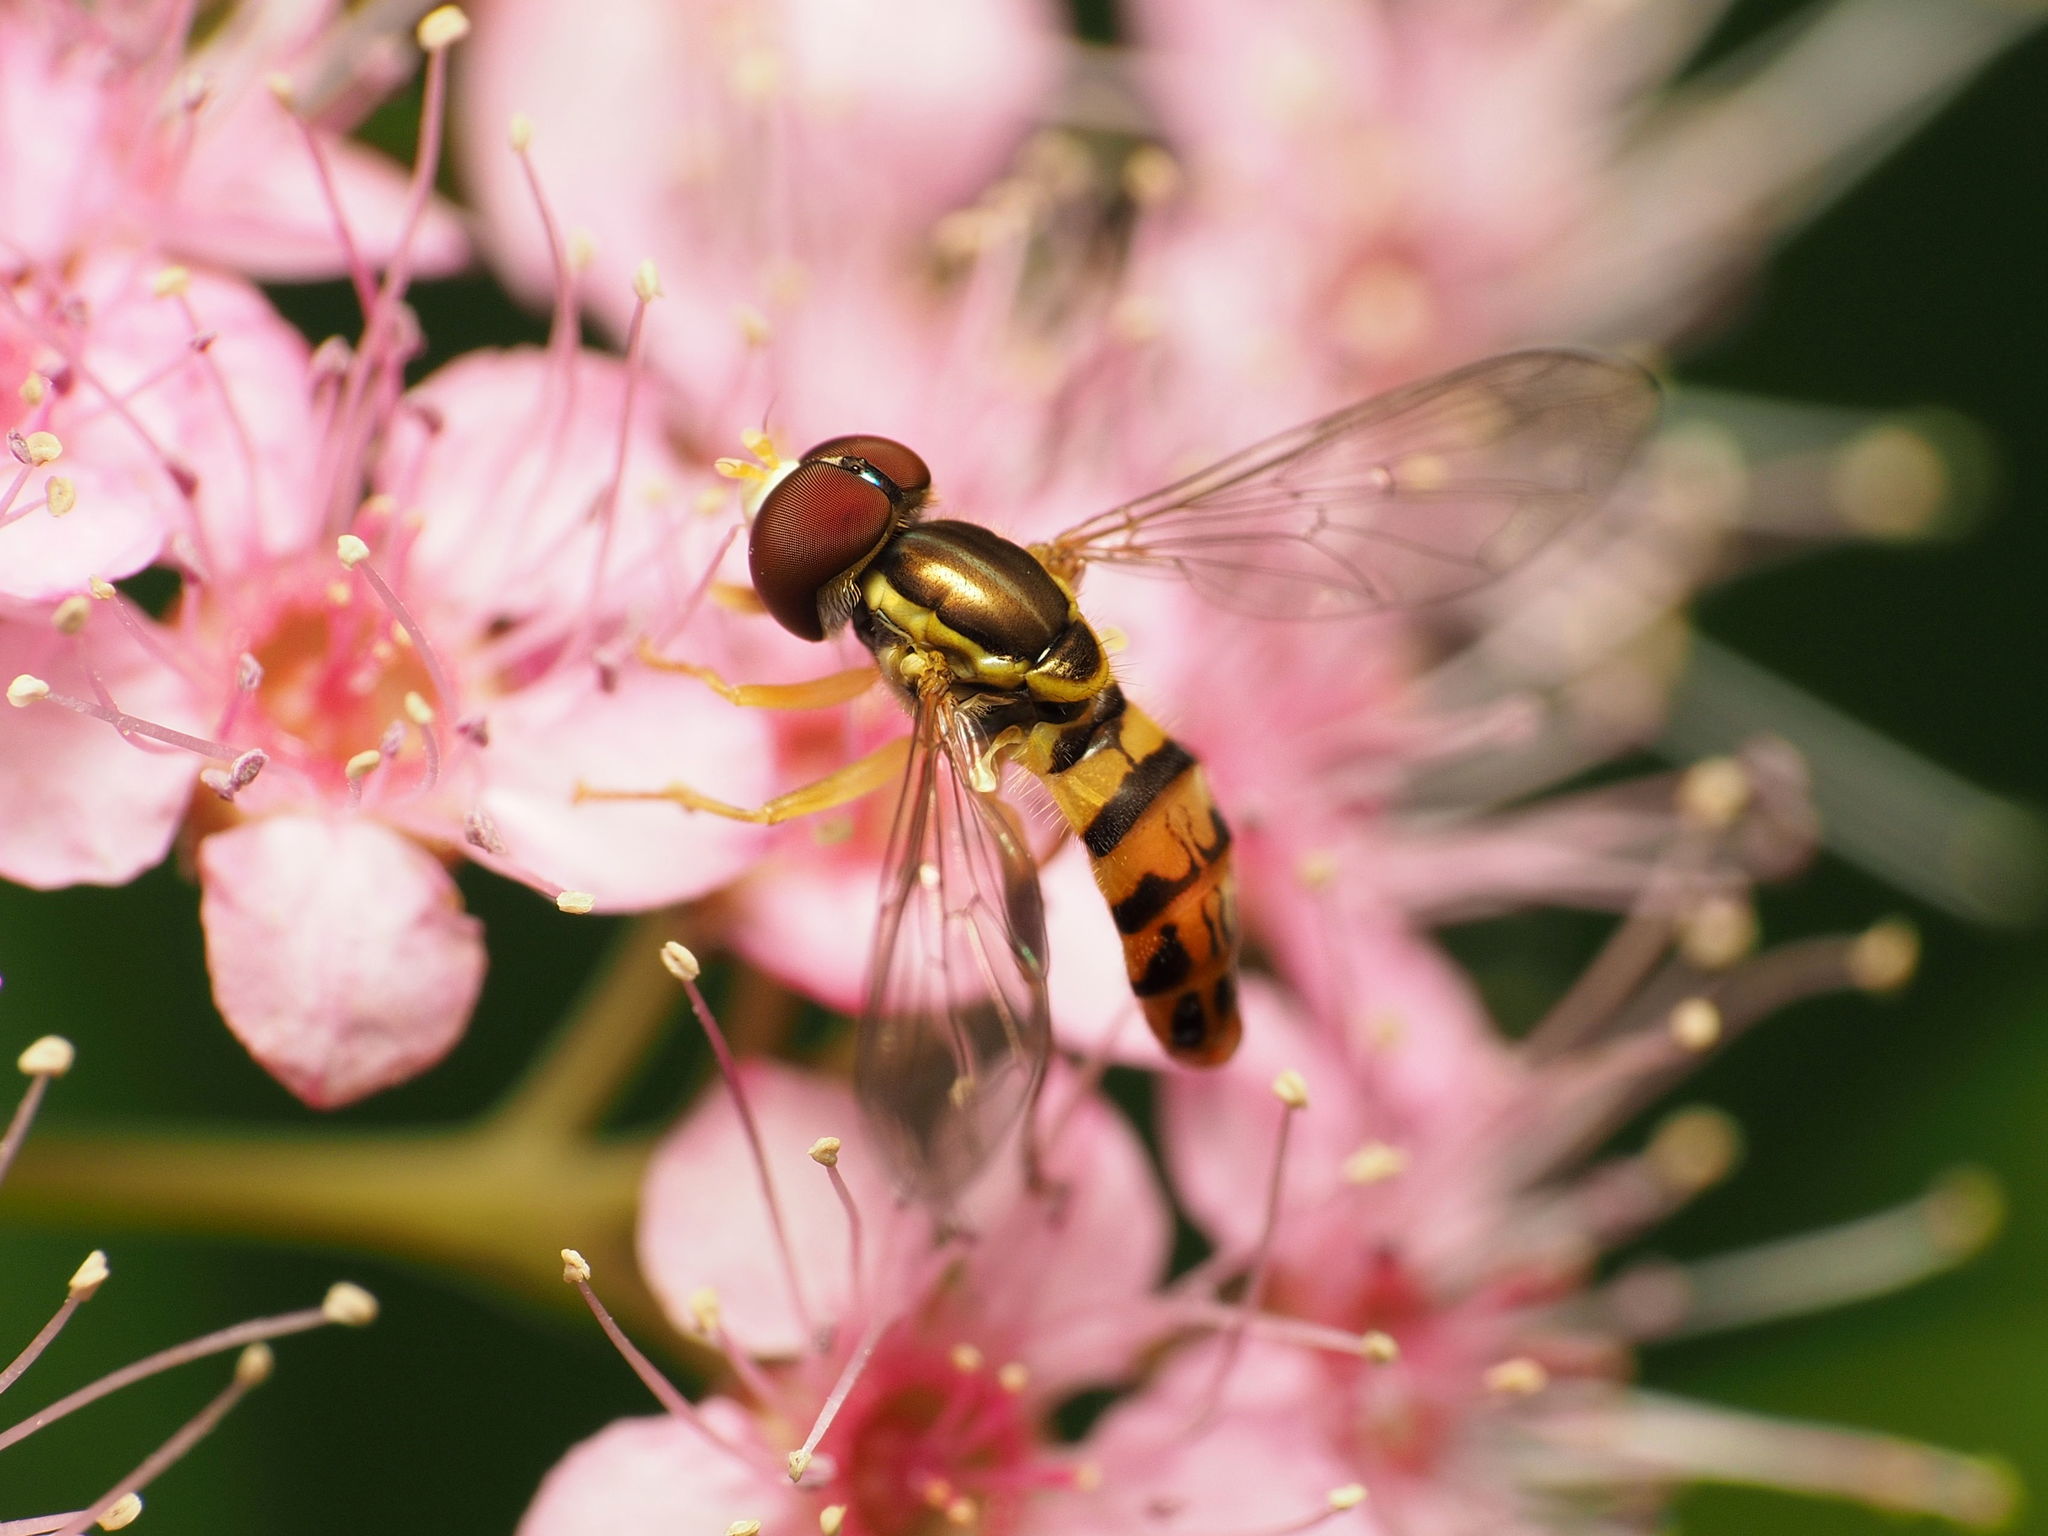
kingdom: Animalia
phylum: Arthropoda
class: Insecta
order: Diptera
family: Syrphidae
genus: Toxomerus
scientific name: Toxomerus geminatus
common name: Eastern calligrapher
